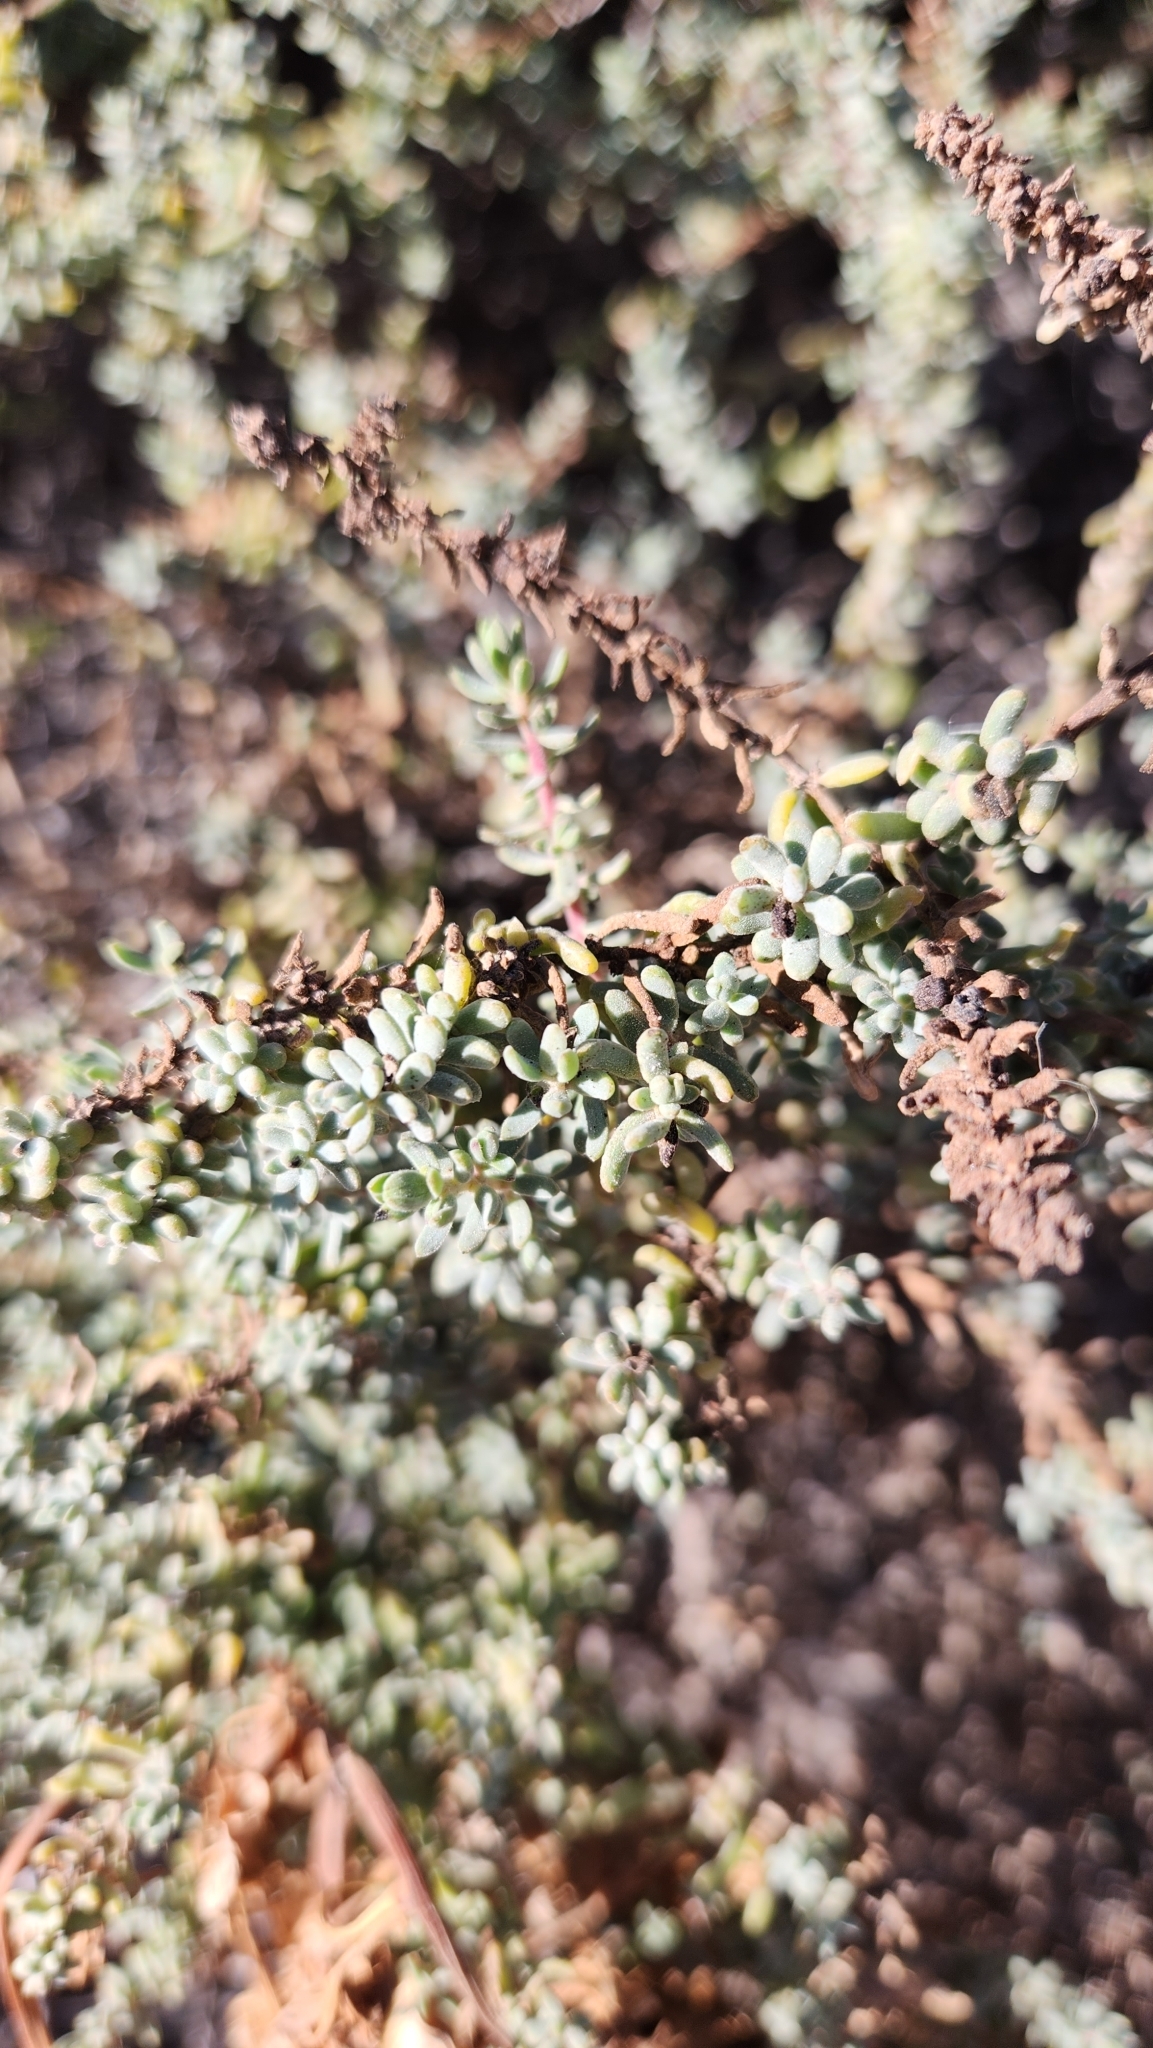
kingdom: Plantae
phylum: Tracheophyta
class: Magnoliopsida
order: Caryophyllales
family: Amaranthaceae
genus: Suaeda
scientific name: Suaeda nigra
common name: Bush seepweed
